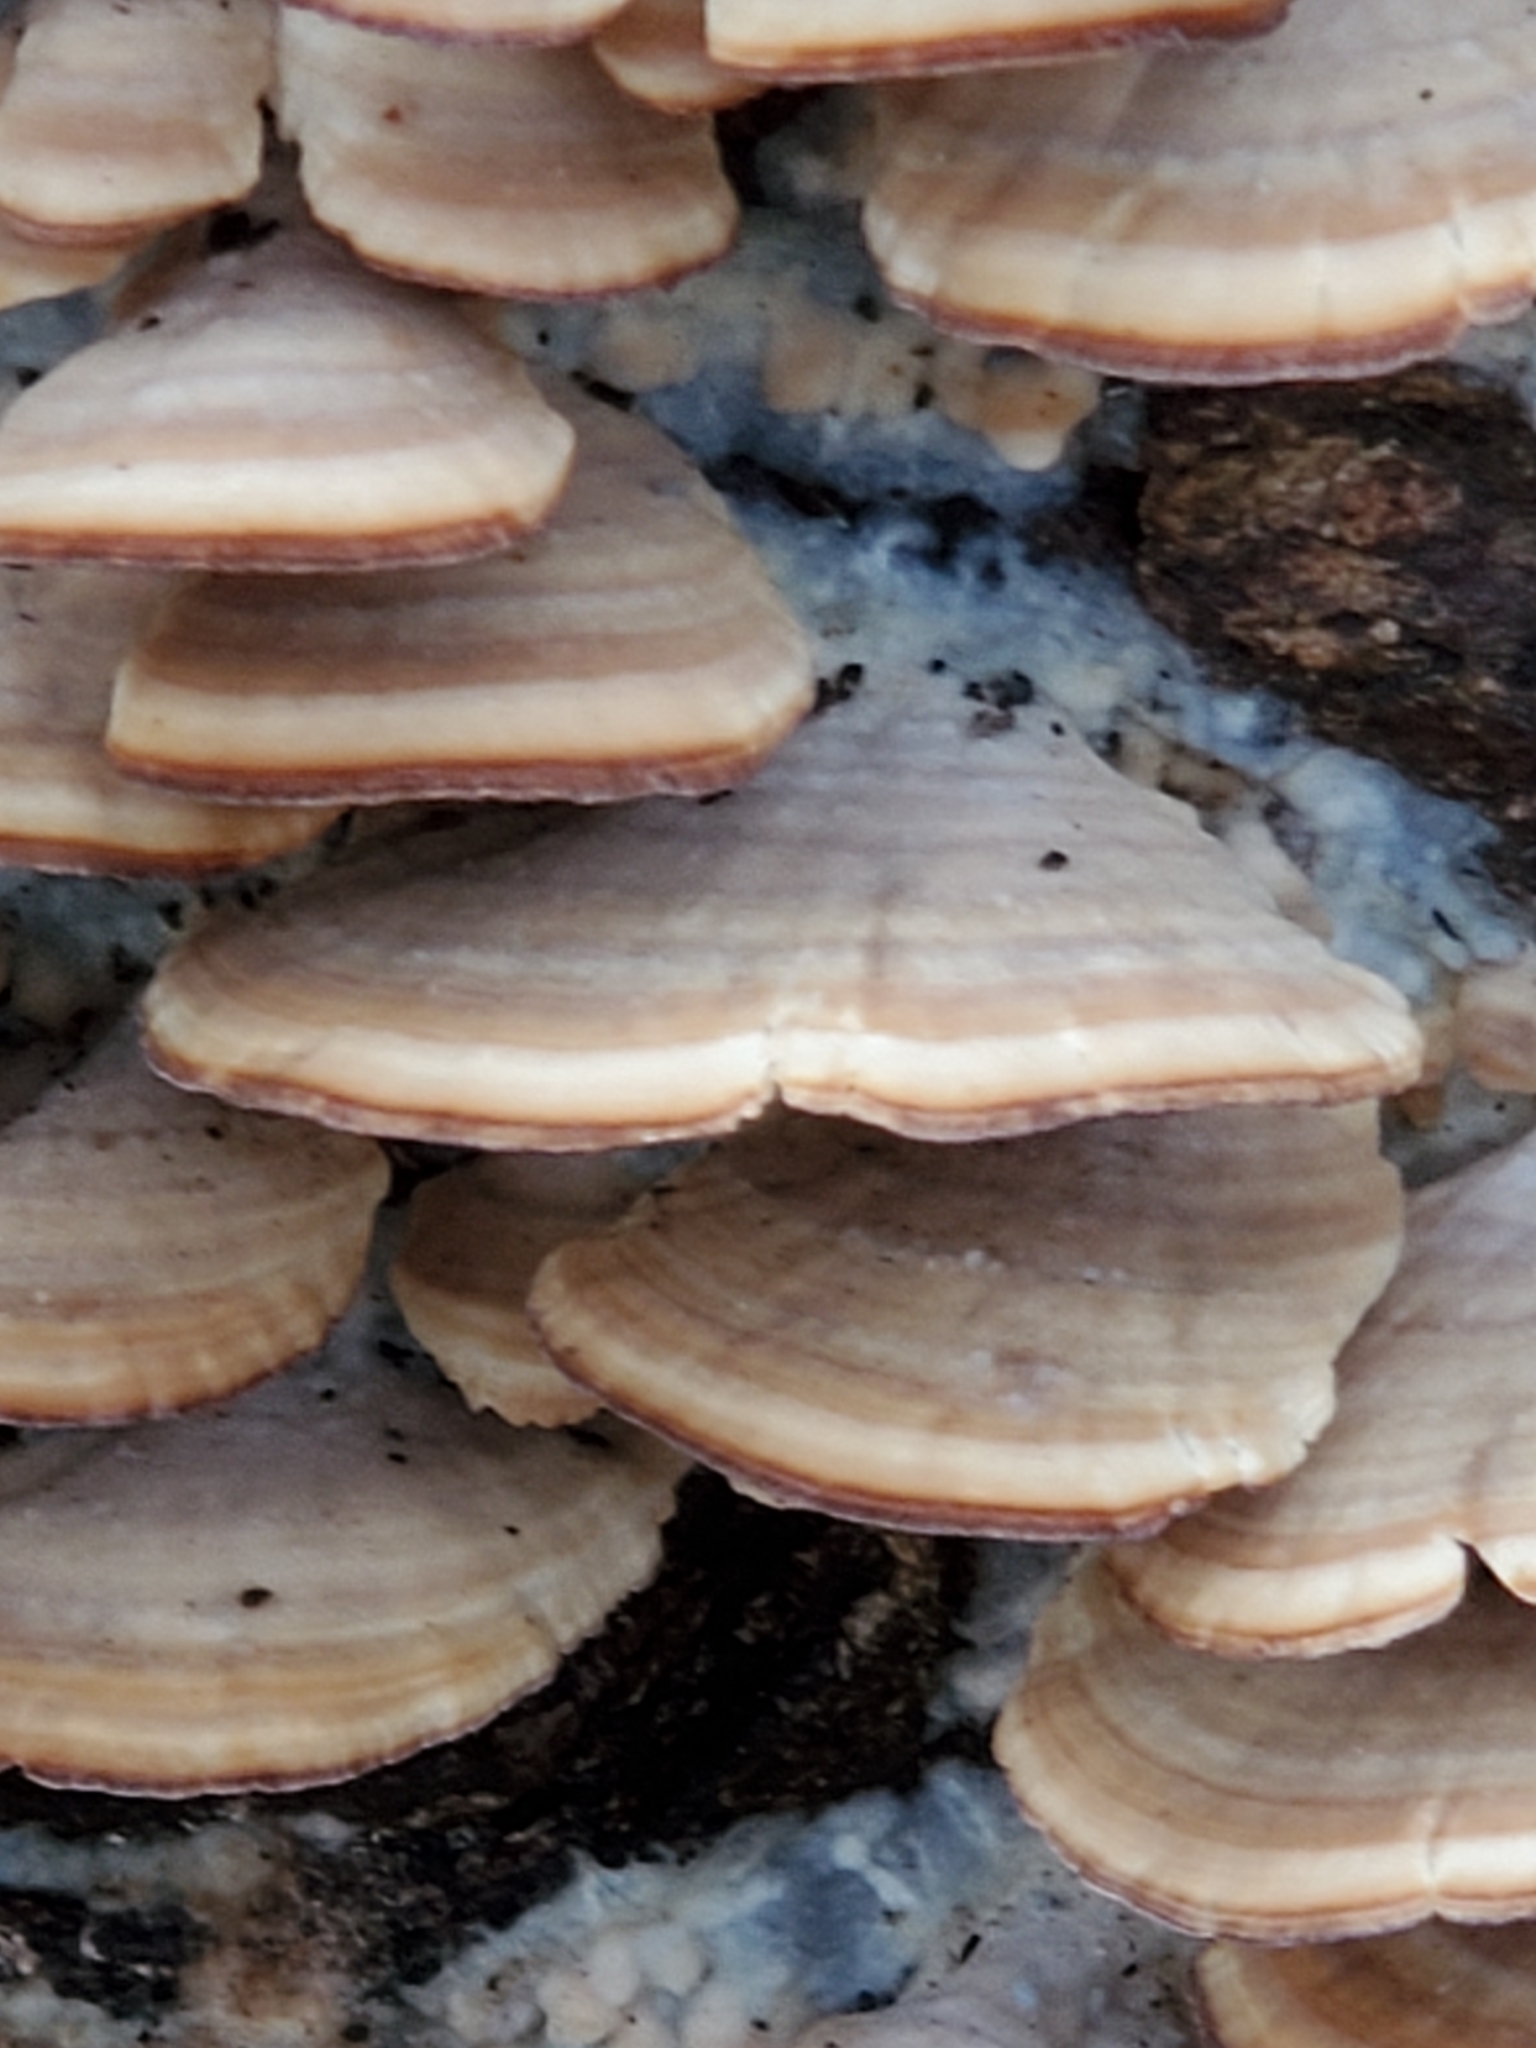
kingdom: Fungi
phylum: Basidiomycota
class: Agaricomycetes
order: Hymenochaetales
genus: Trichaptum
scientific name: Trichaptum biforme
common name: Violet-toothed polypore
